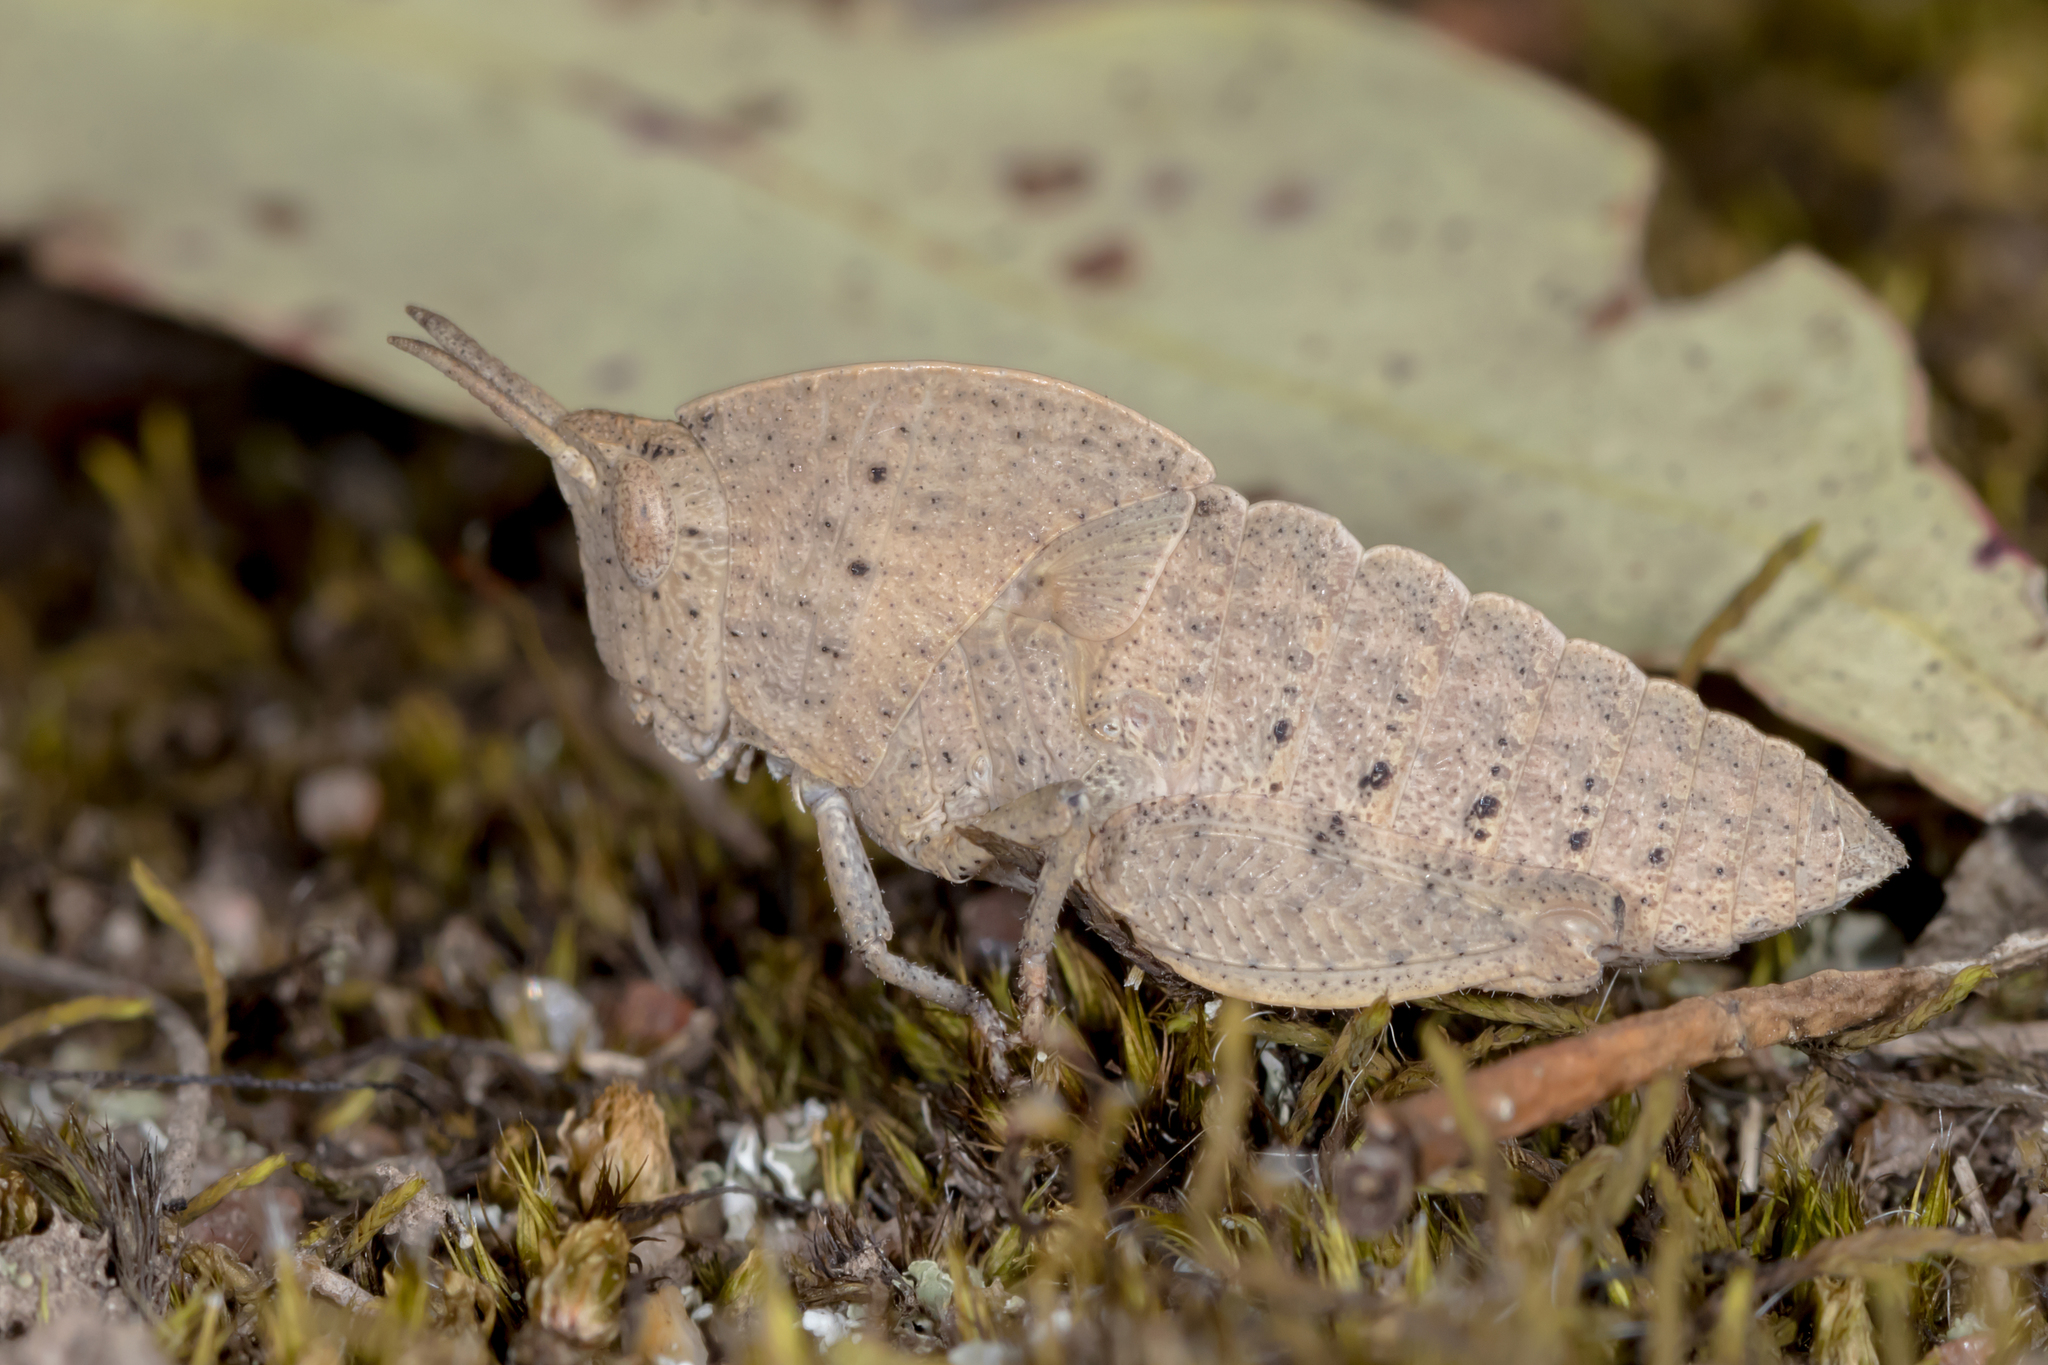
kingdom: Animalia
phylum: Arthropoda
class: Insecta
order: Orthoptera
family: Acrididae
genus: Goniaea
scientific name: Goniaea australasiae
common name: Gumleaf grasshopper
